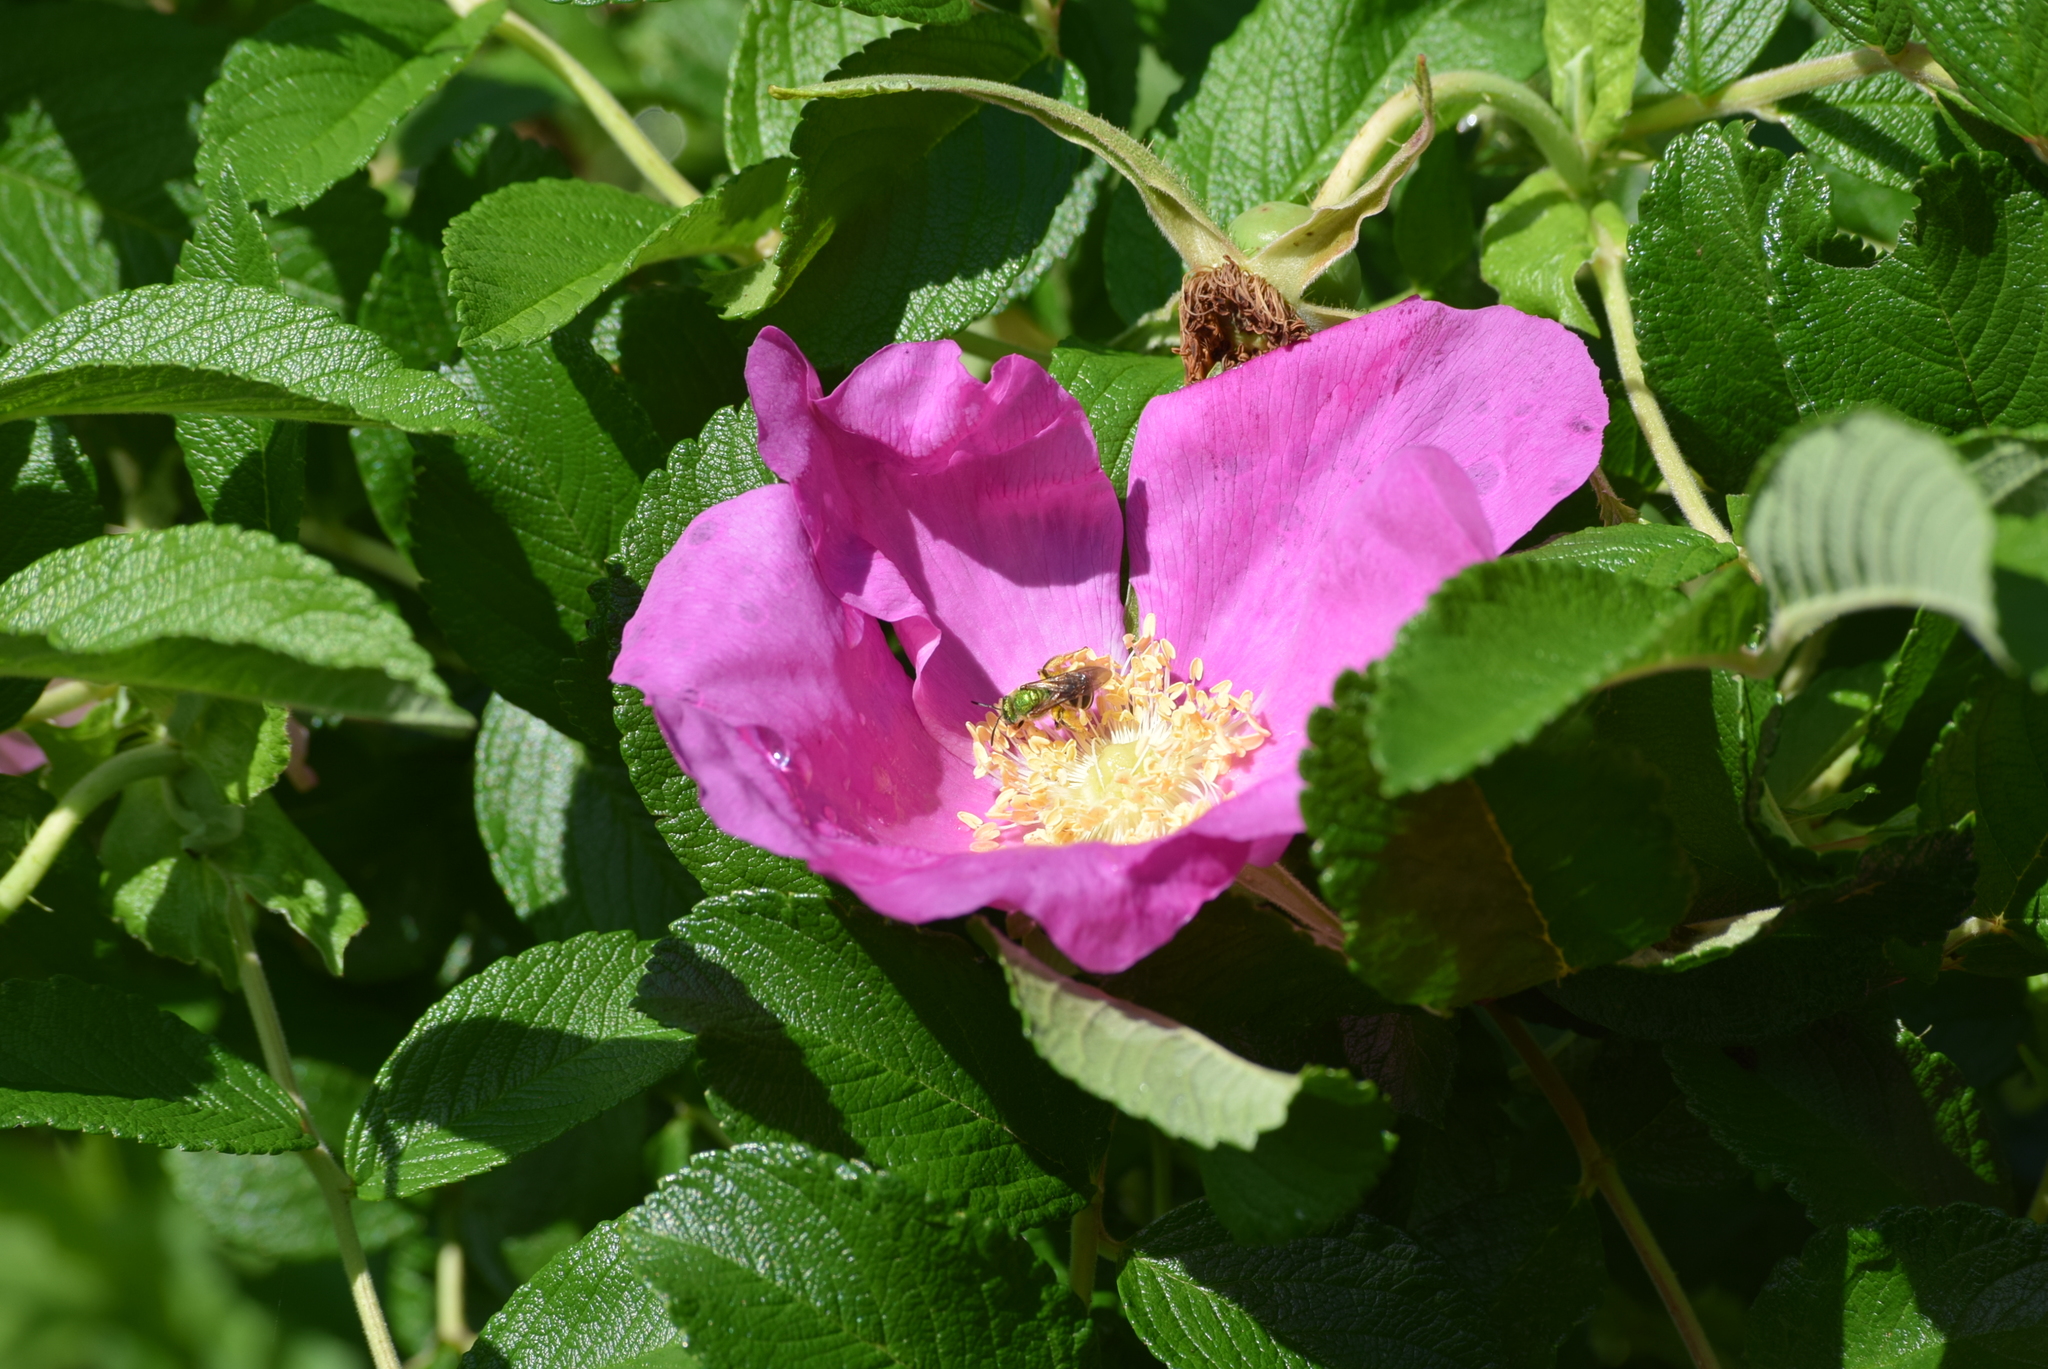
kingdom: Animalia
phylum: Arthropoda
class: Insecta
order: Hymenoptera
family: Halictidae
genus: Agapostemon
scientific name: Agapostemon virescens
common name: Bicolored striped sweat bee
